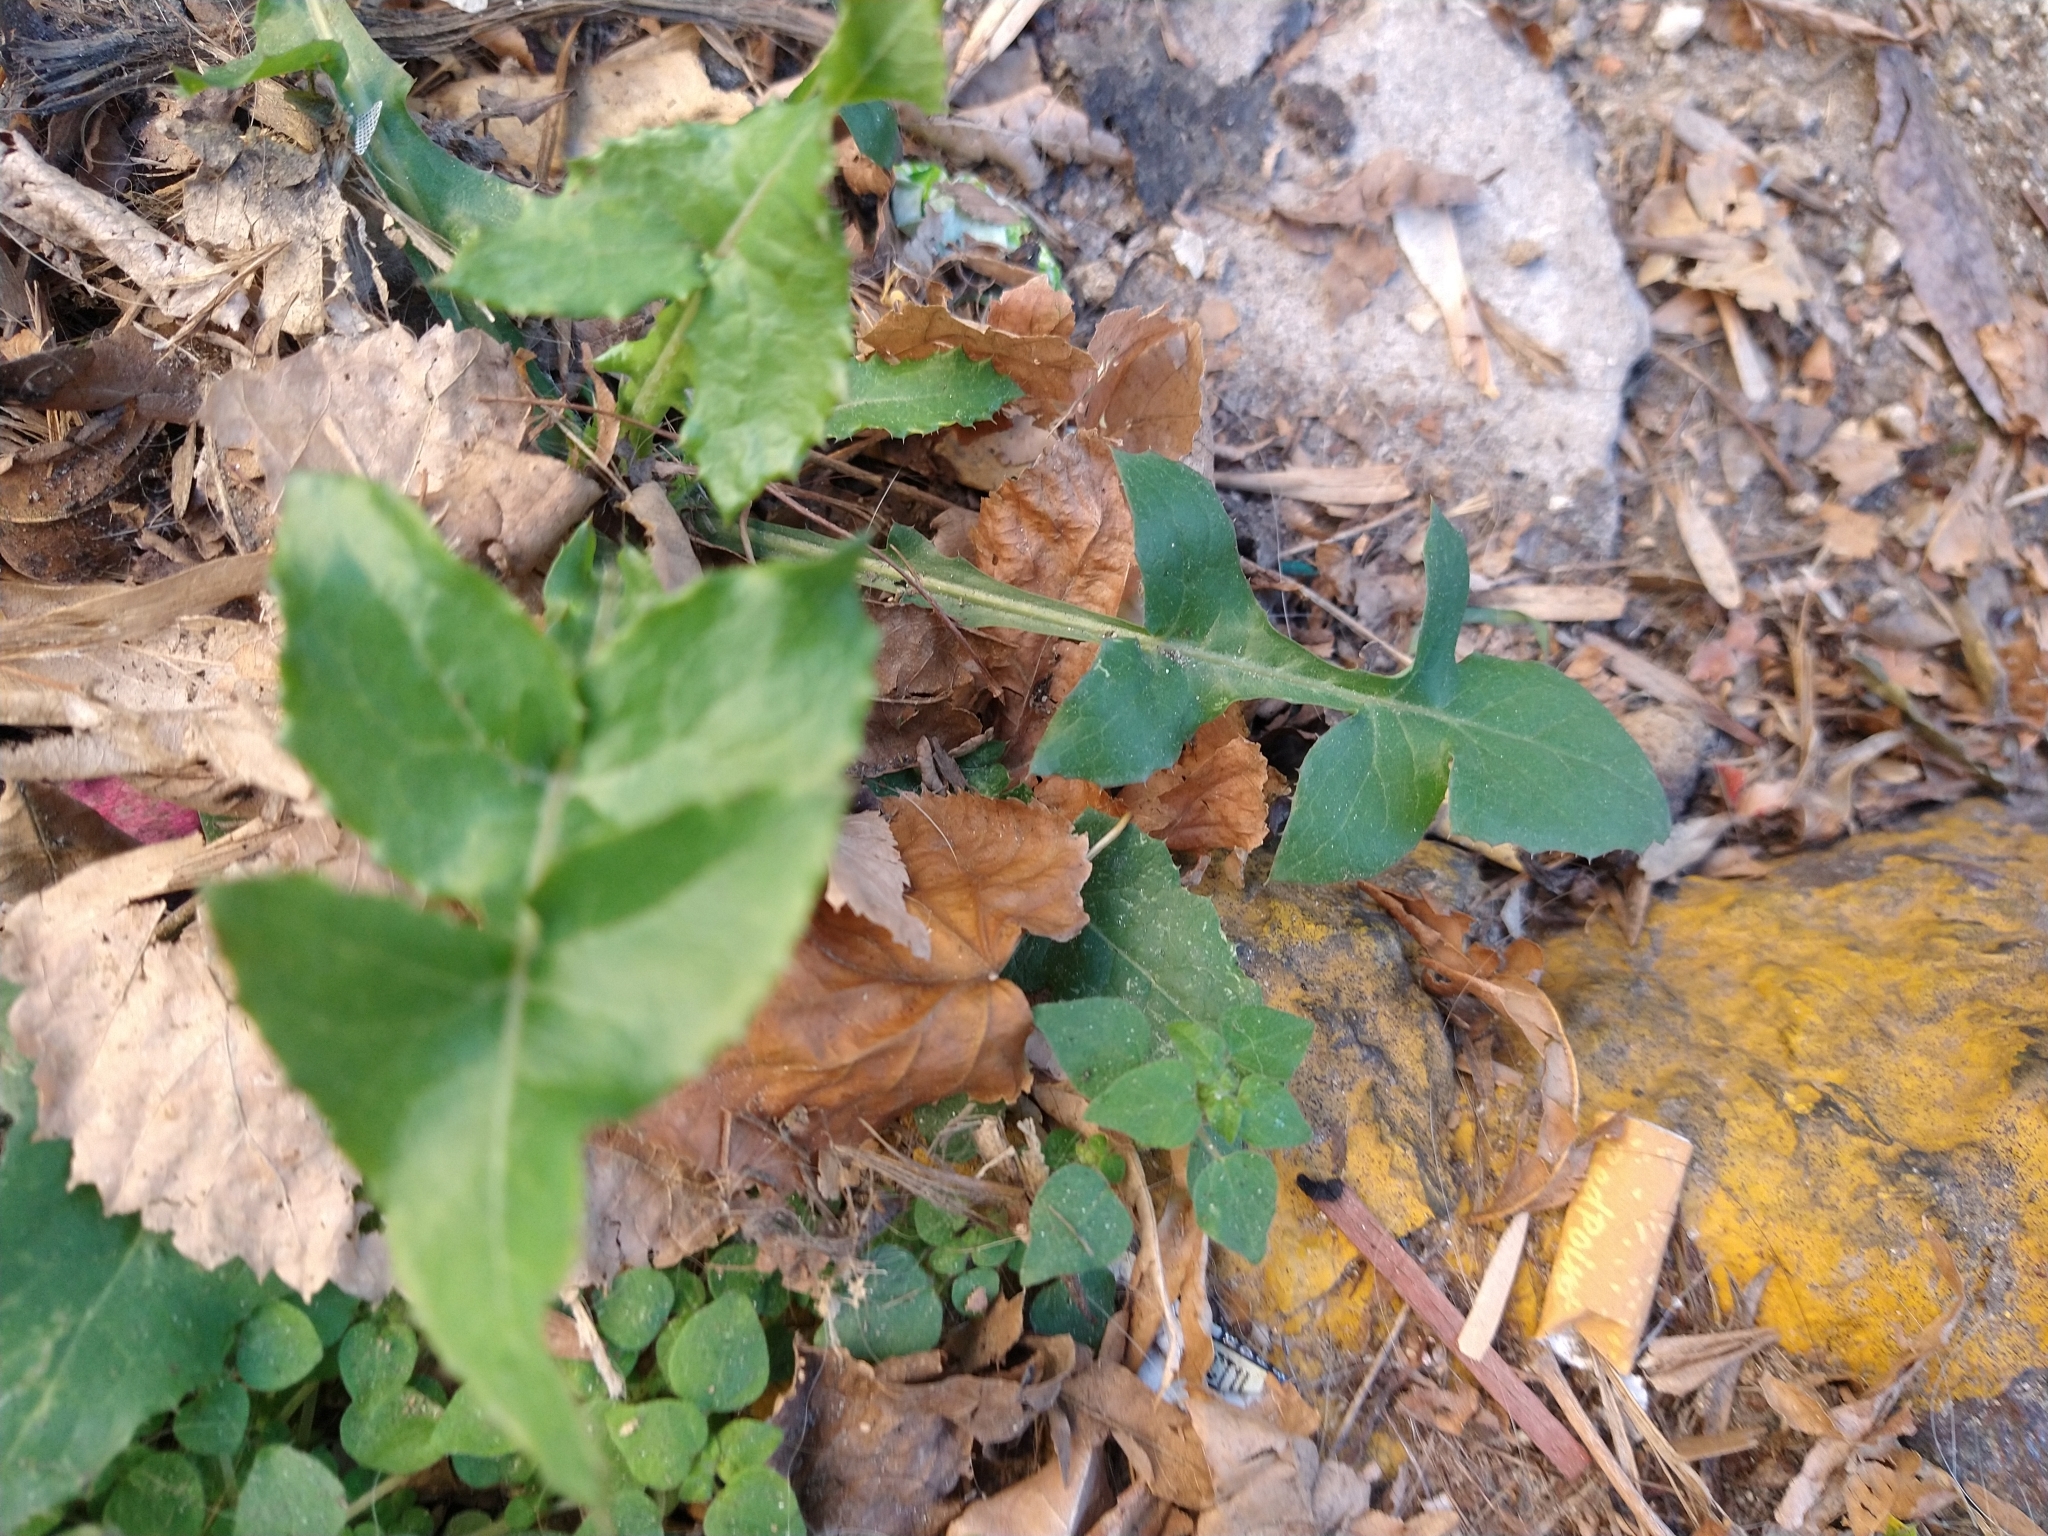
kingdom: Plantae
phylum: Tracheophyta
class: Magnoliopsida
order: Asterales
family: Asteraceae
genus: Sonchus
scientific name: Sonchus oleraceus
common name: Common sowthistle
